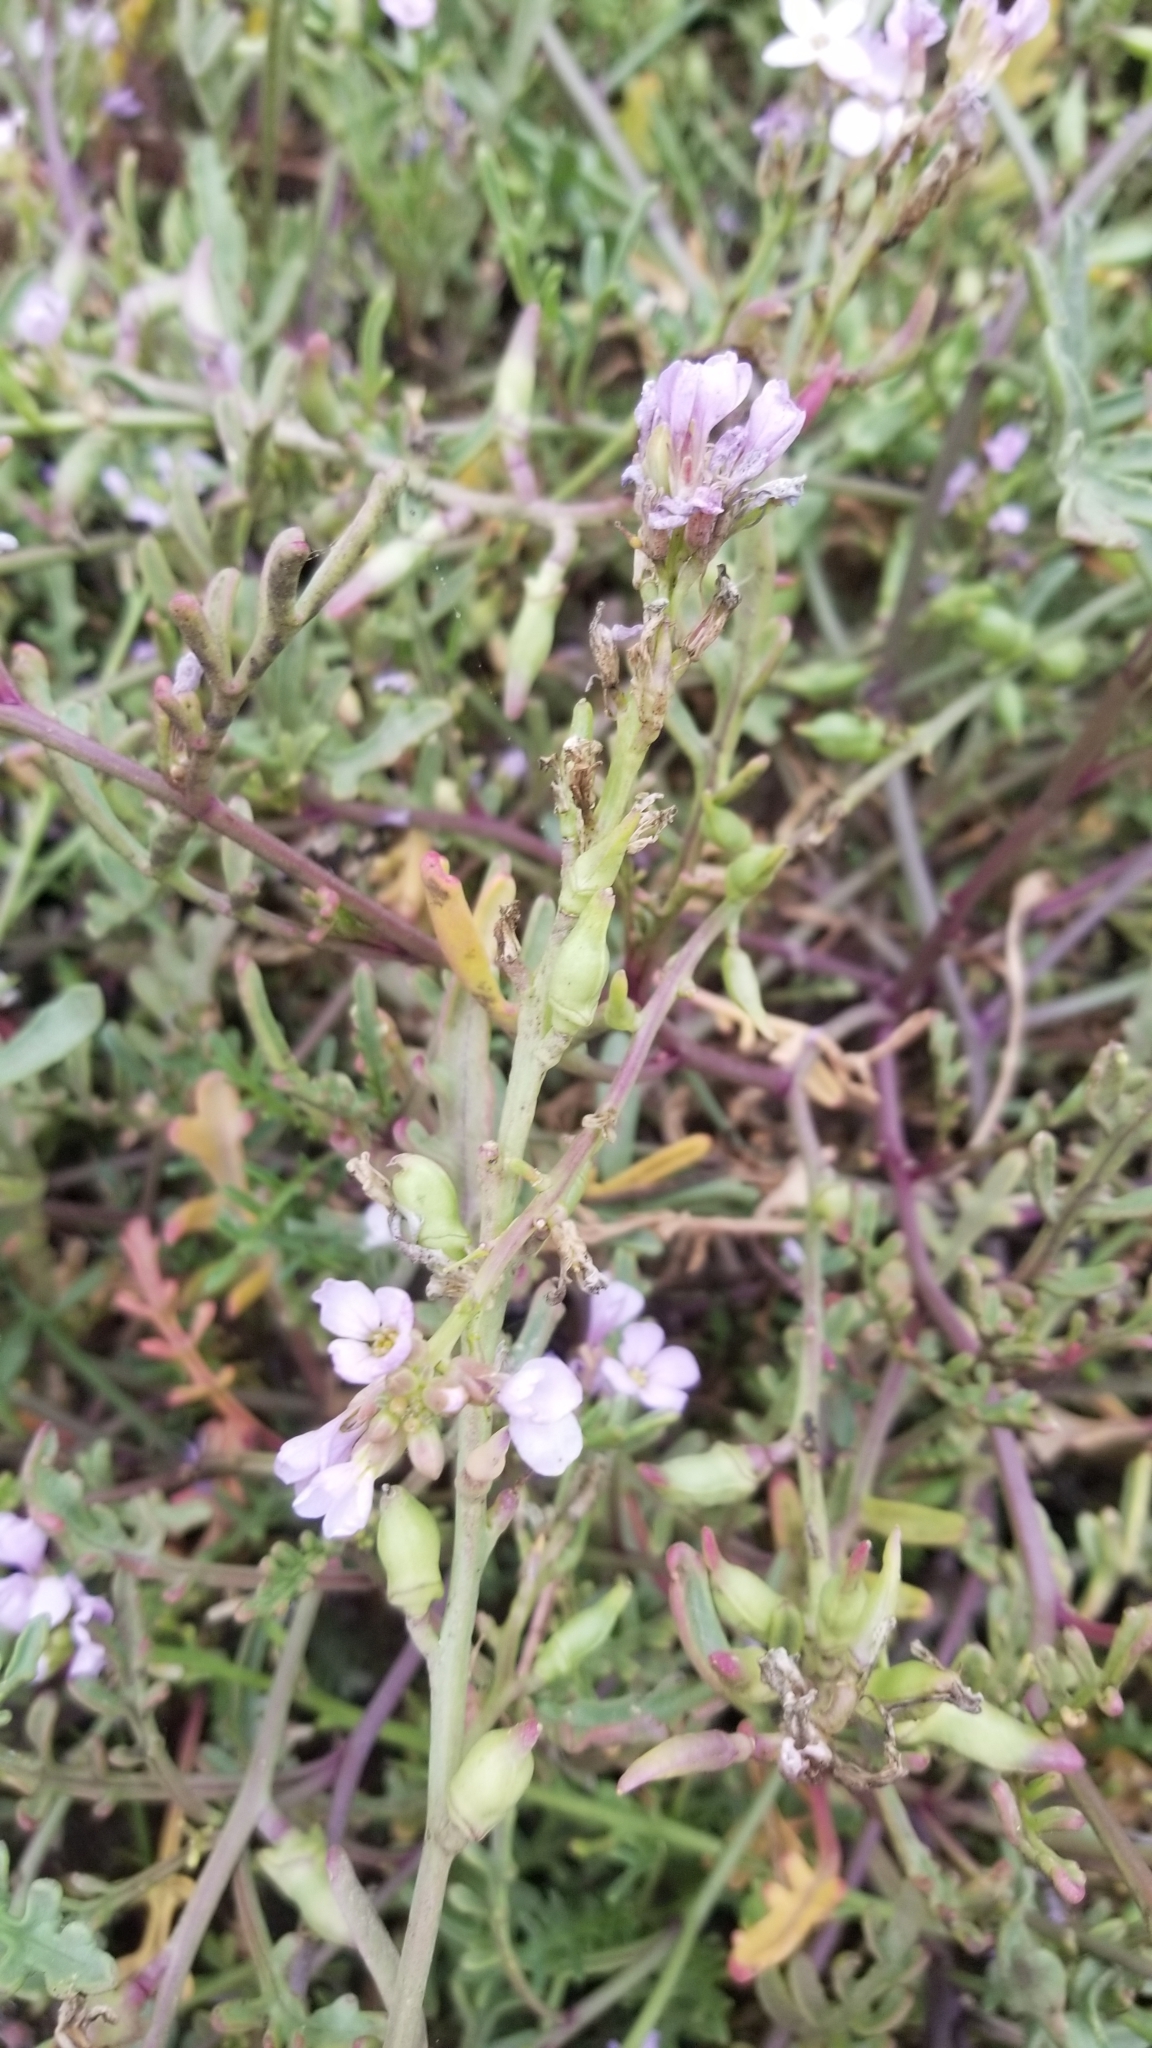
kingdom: Plantae
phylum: Tracheophyta
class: Magnoliopsida
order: Brassicales
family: Brassicaceae
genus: Cakile
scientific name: Cakile maritima
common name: Sea rocket
